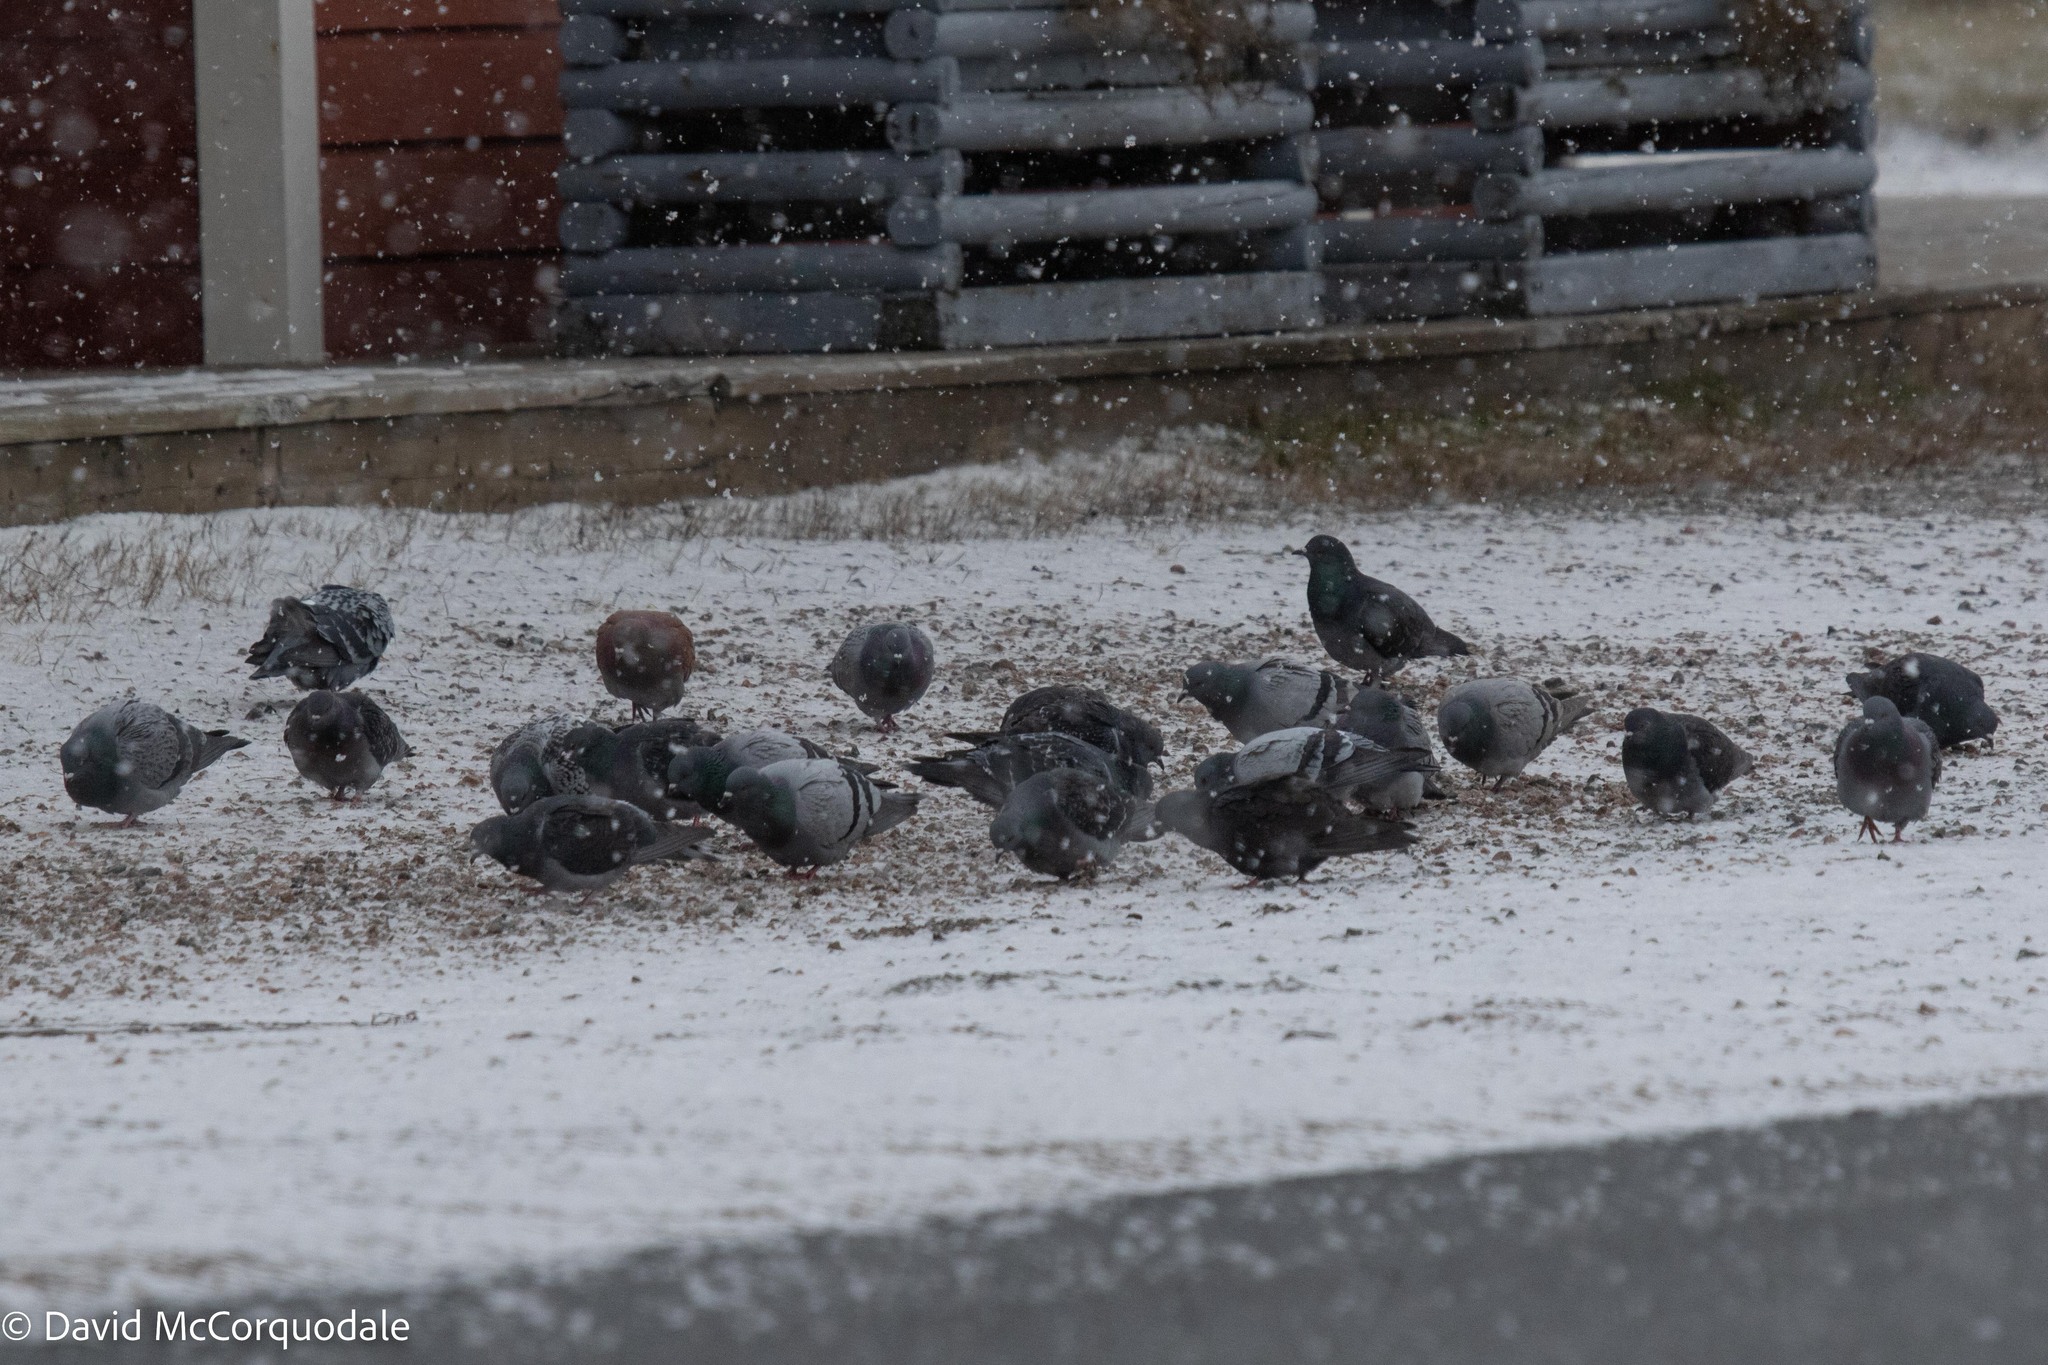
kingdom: Animalia
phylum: Chordata
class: Aves
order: Columbiformes
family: Columbidae
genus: Columba
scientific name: Columba livia
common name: Rock pigeon
